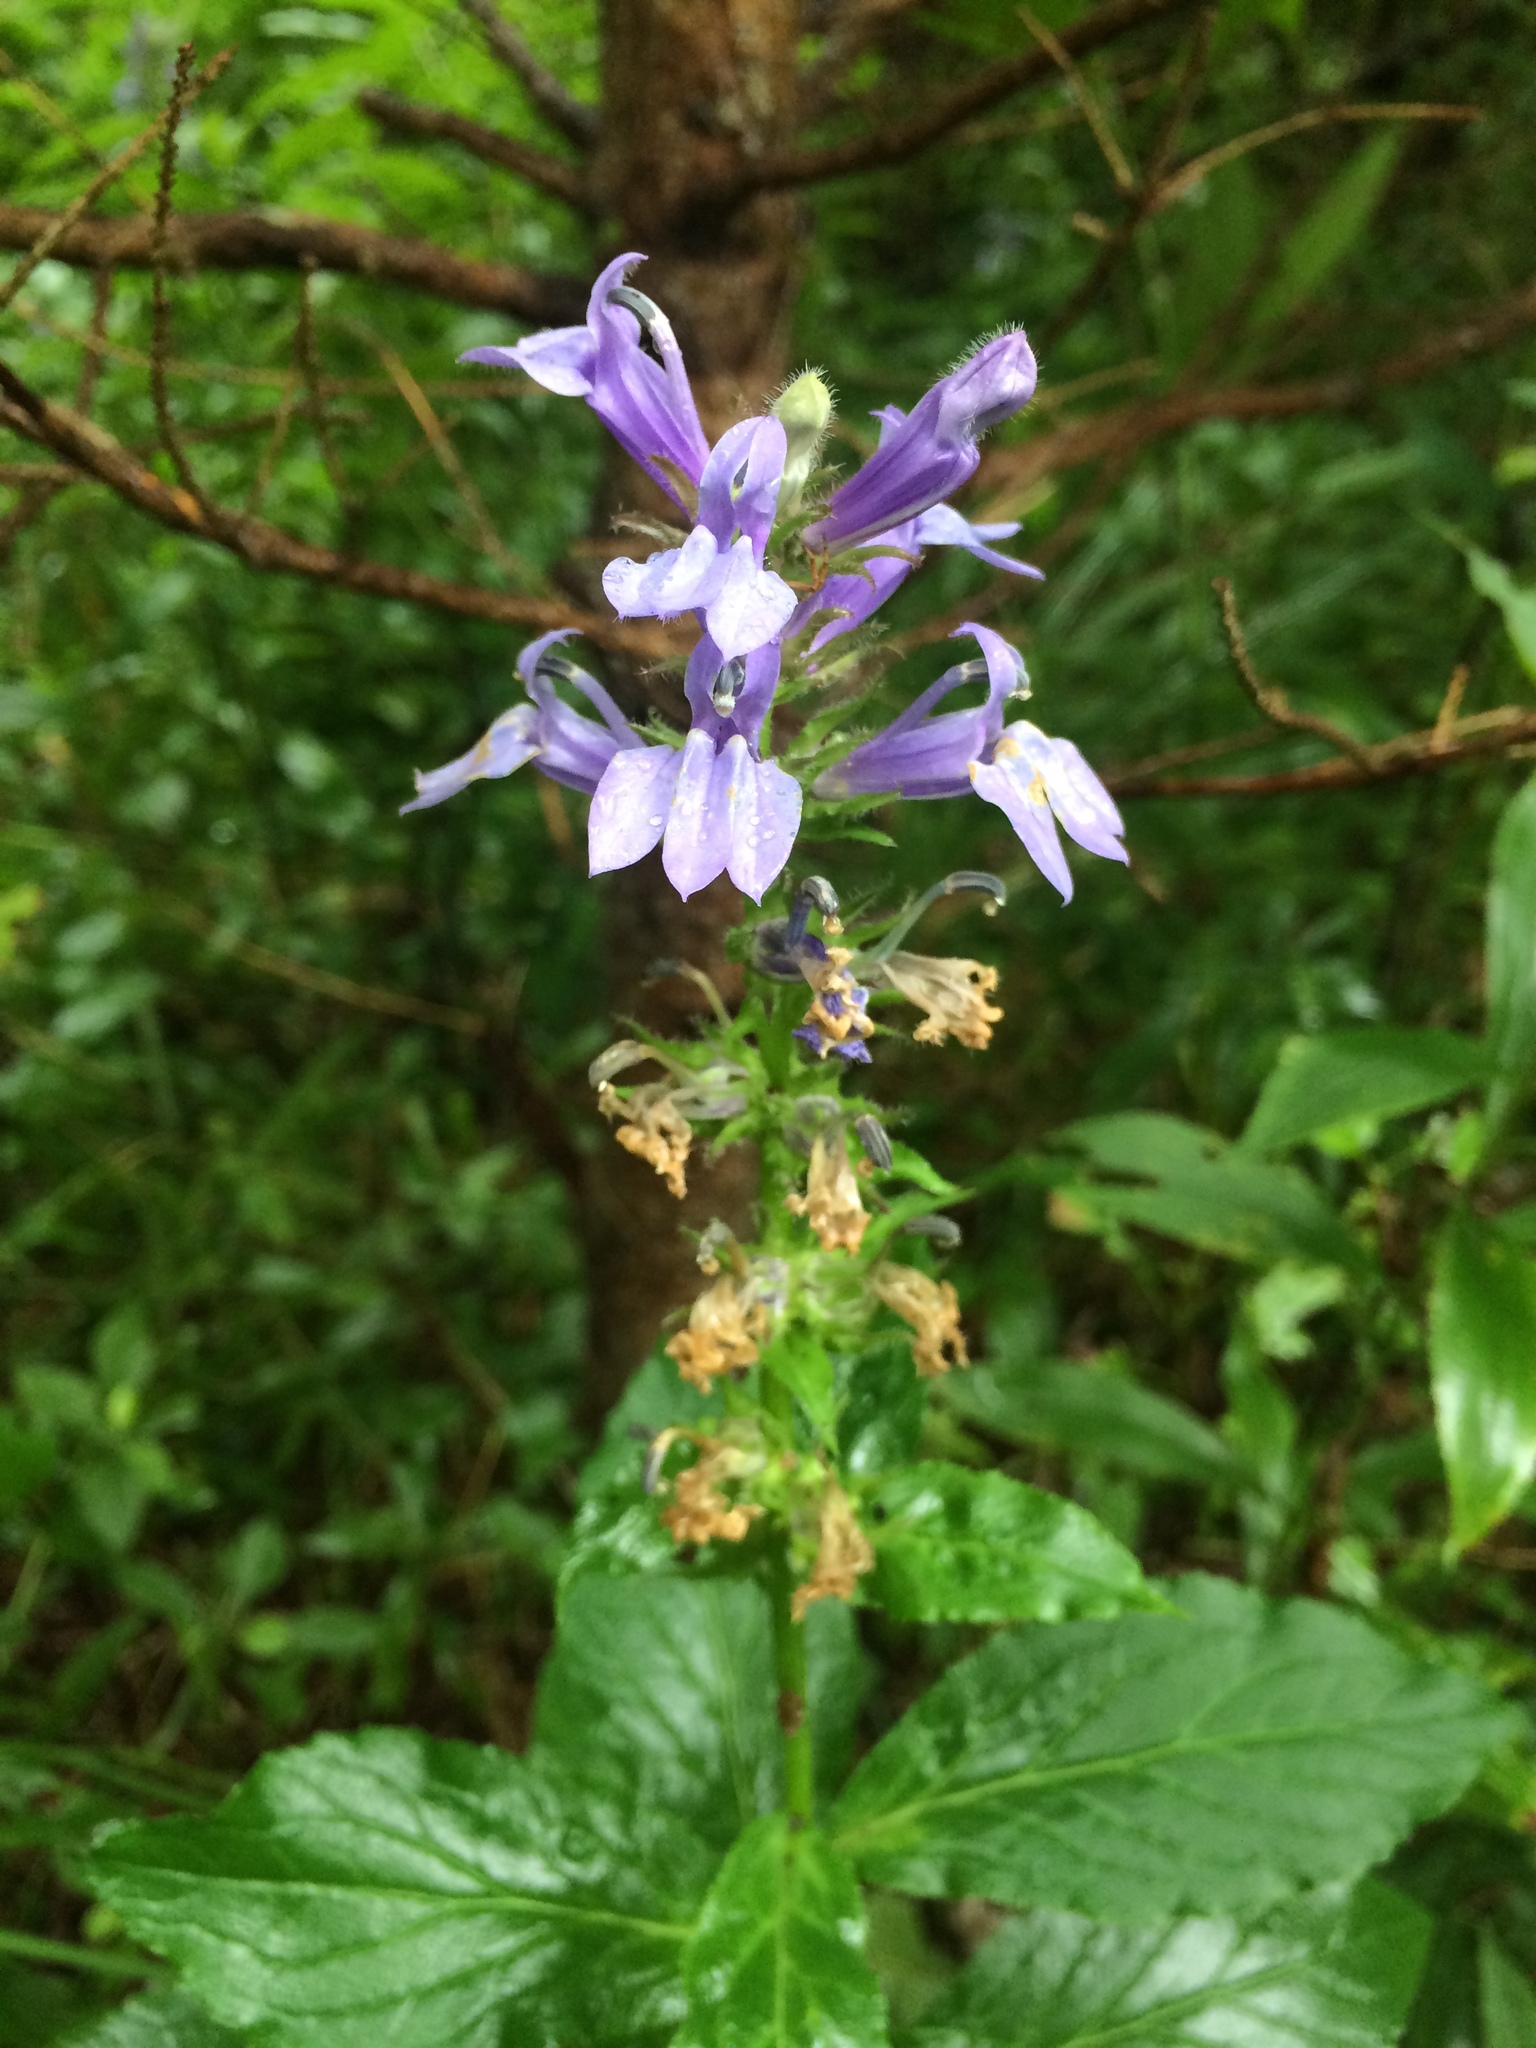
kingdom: Plantae
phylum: Tracheophyta
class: Magnoliopsida
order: Asterales
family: Campanulaceae
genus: Lobelia
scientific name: Lobelia siphilitica
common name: Great lobelia
